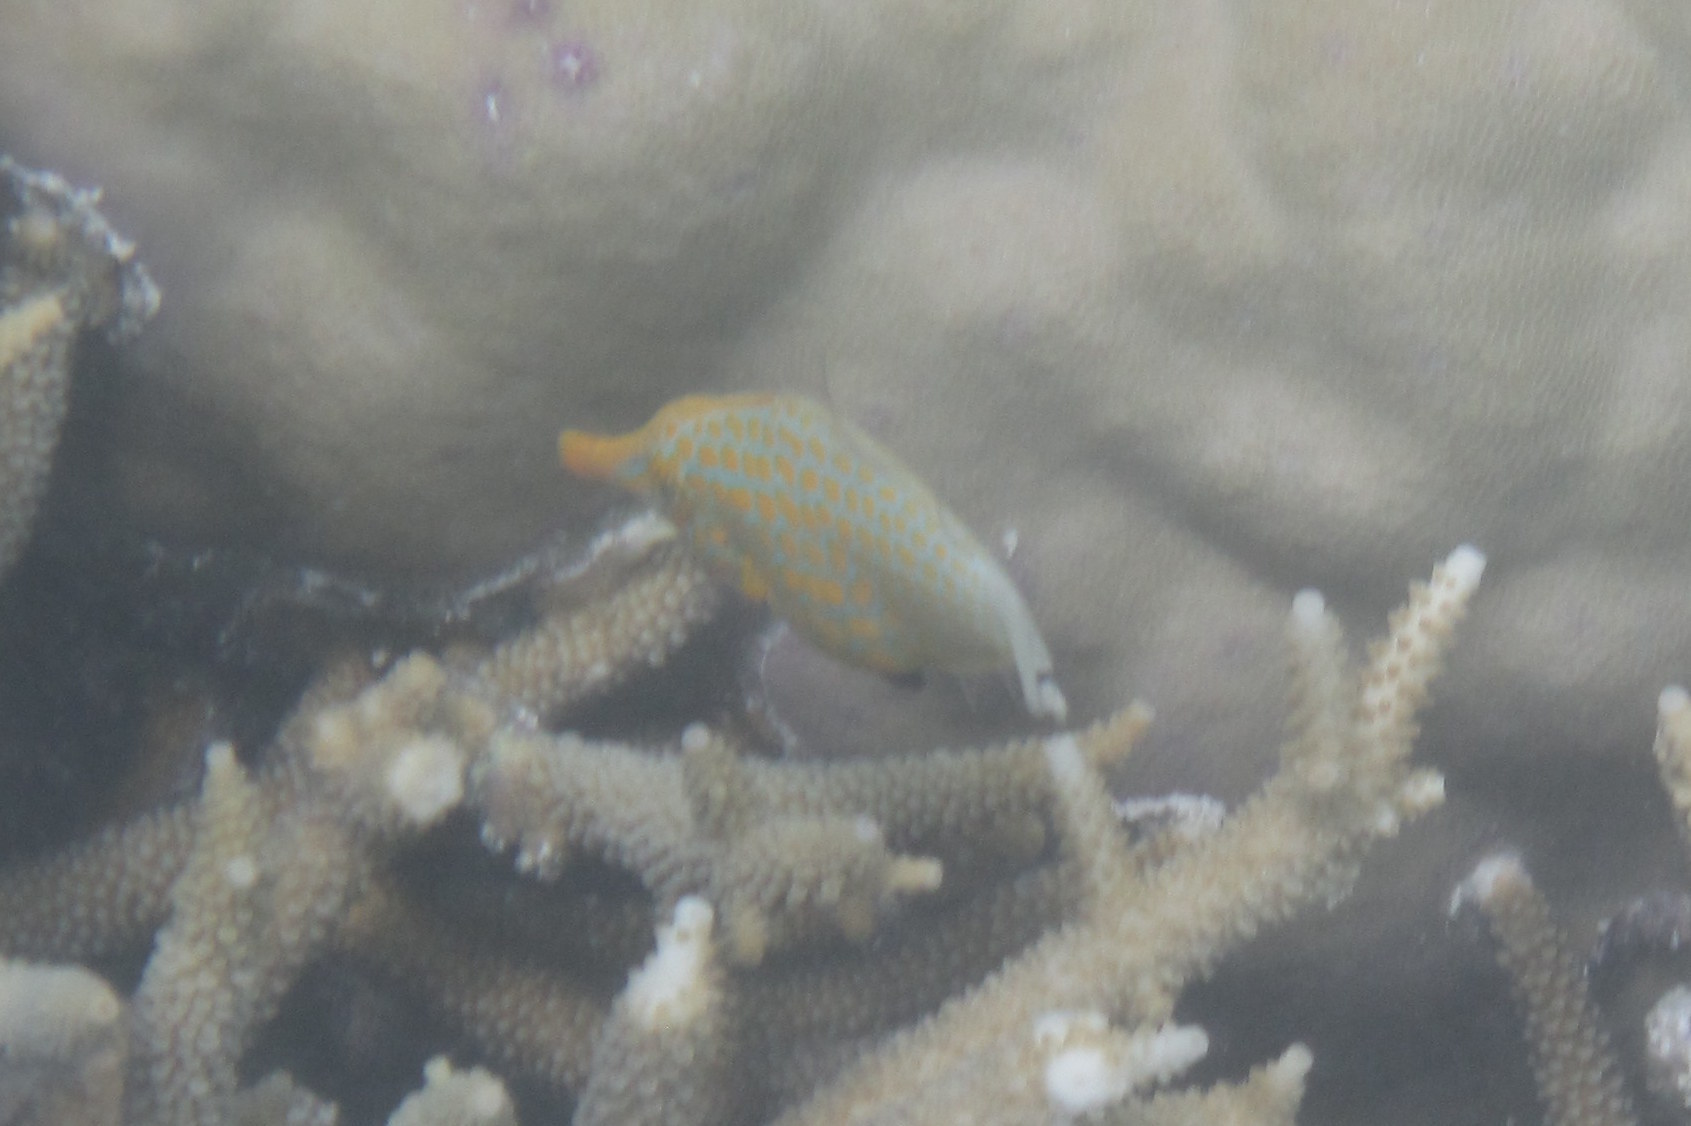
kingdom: Animalia
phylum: Chordata
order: Tetraodontiformes
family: Monacanthidae
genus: Oxymonacanthus
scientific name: Oxymonacanthus longirostris
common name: Beaked leatherjacket
